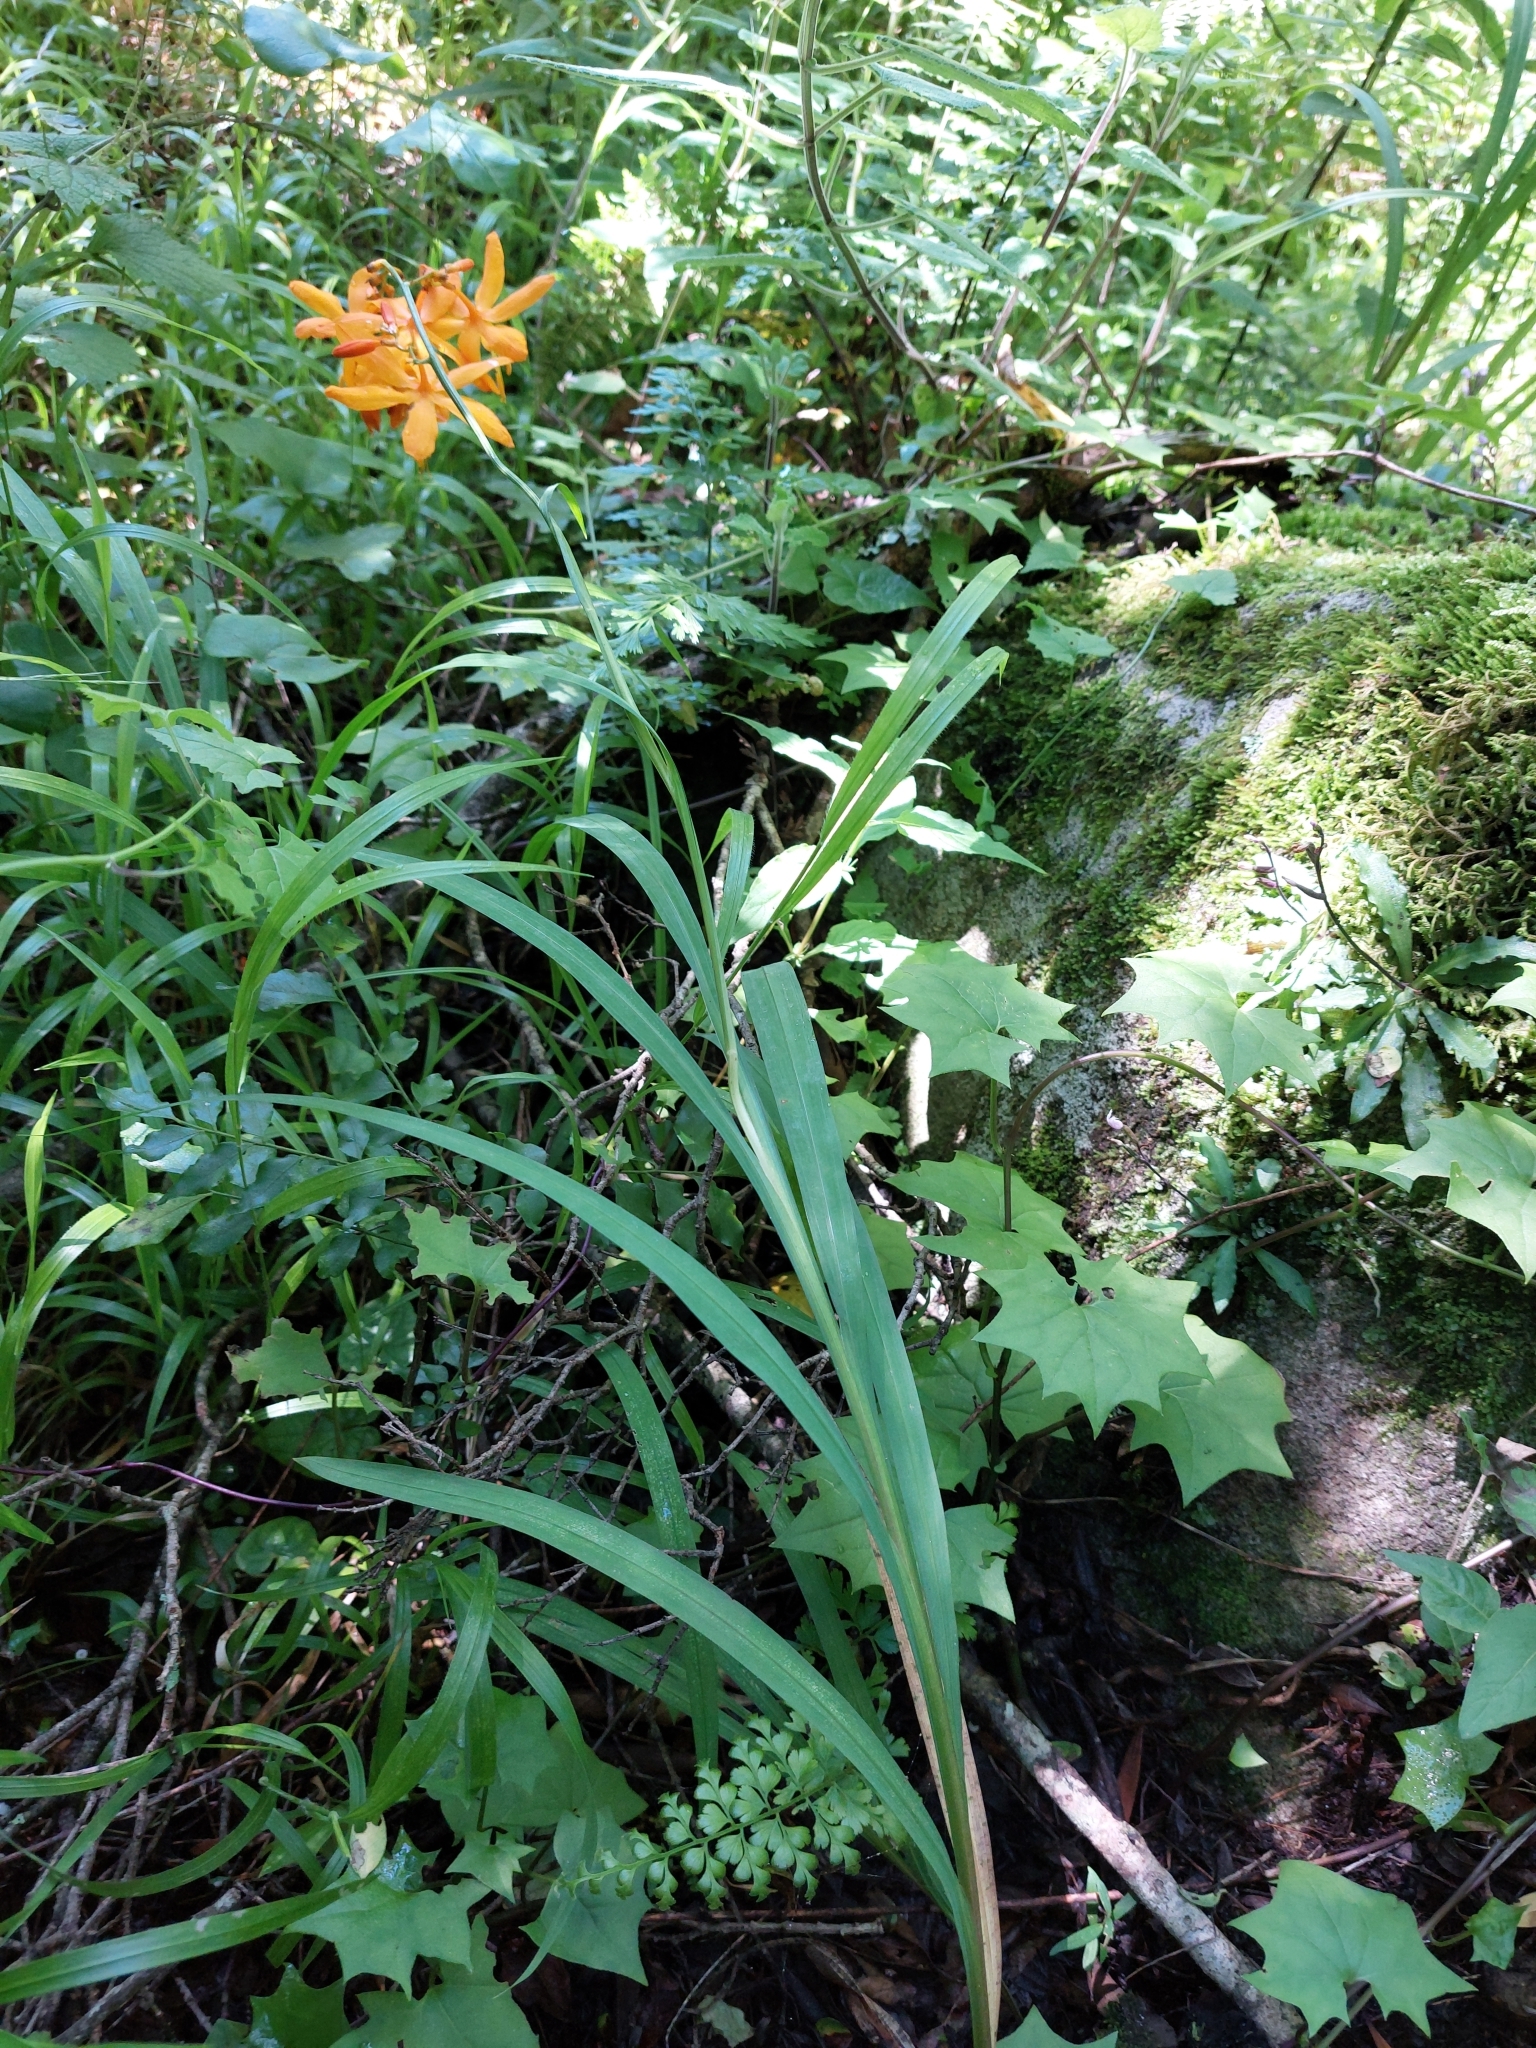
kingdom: Plantae
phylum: Tracheophyta
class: Liliopsida
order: Asparagales
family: Iridaceae
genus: Crocosmia
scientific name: Crocosmia aurea
